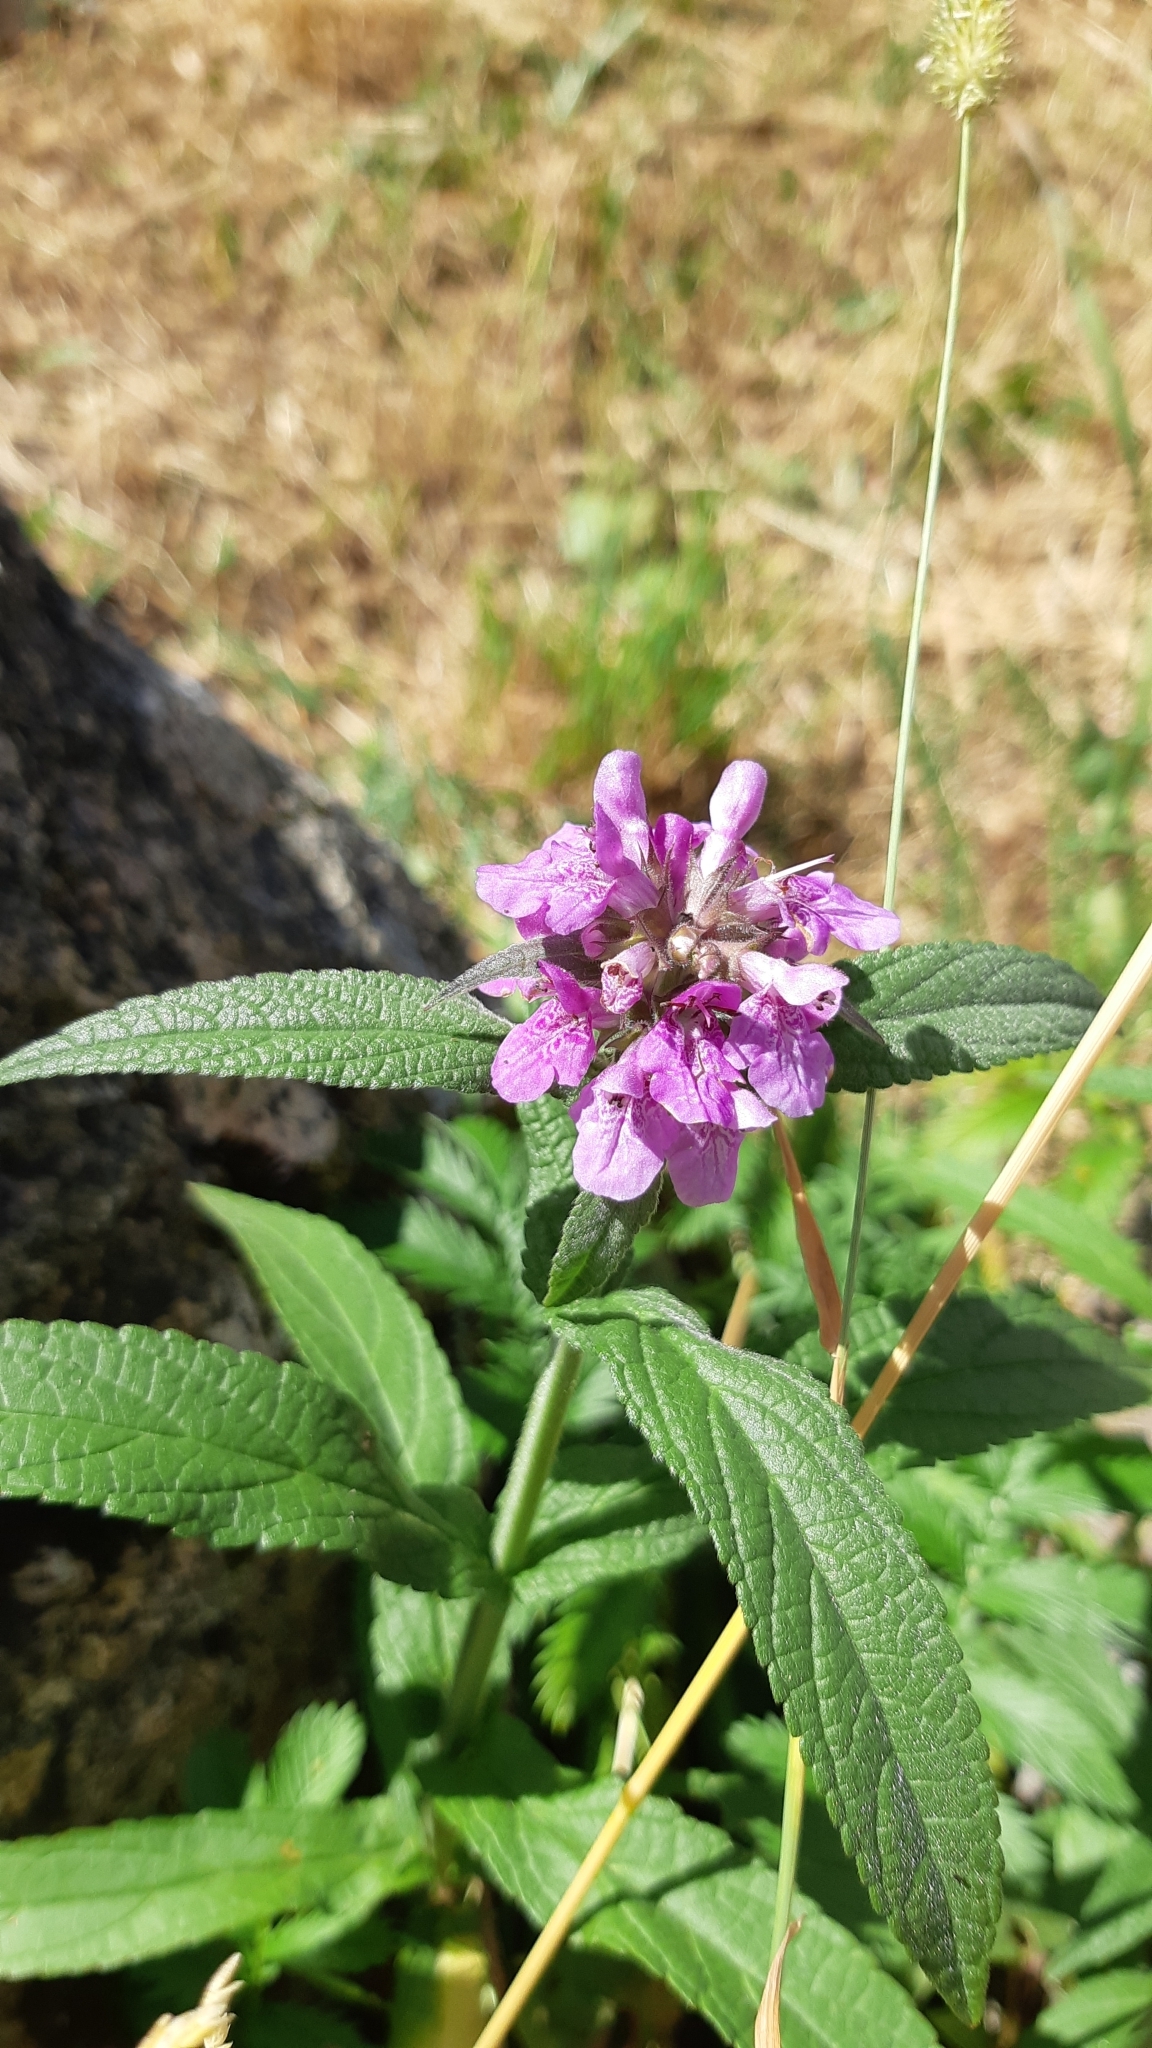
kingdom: Plantae
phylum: Tracheophyta
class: Magnoliopsida
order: Lamiales
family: Lamiaceae
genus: Stachys
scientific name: Stachys palustris
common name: Marsh woundwort
